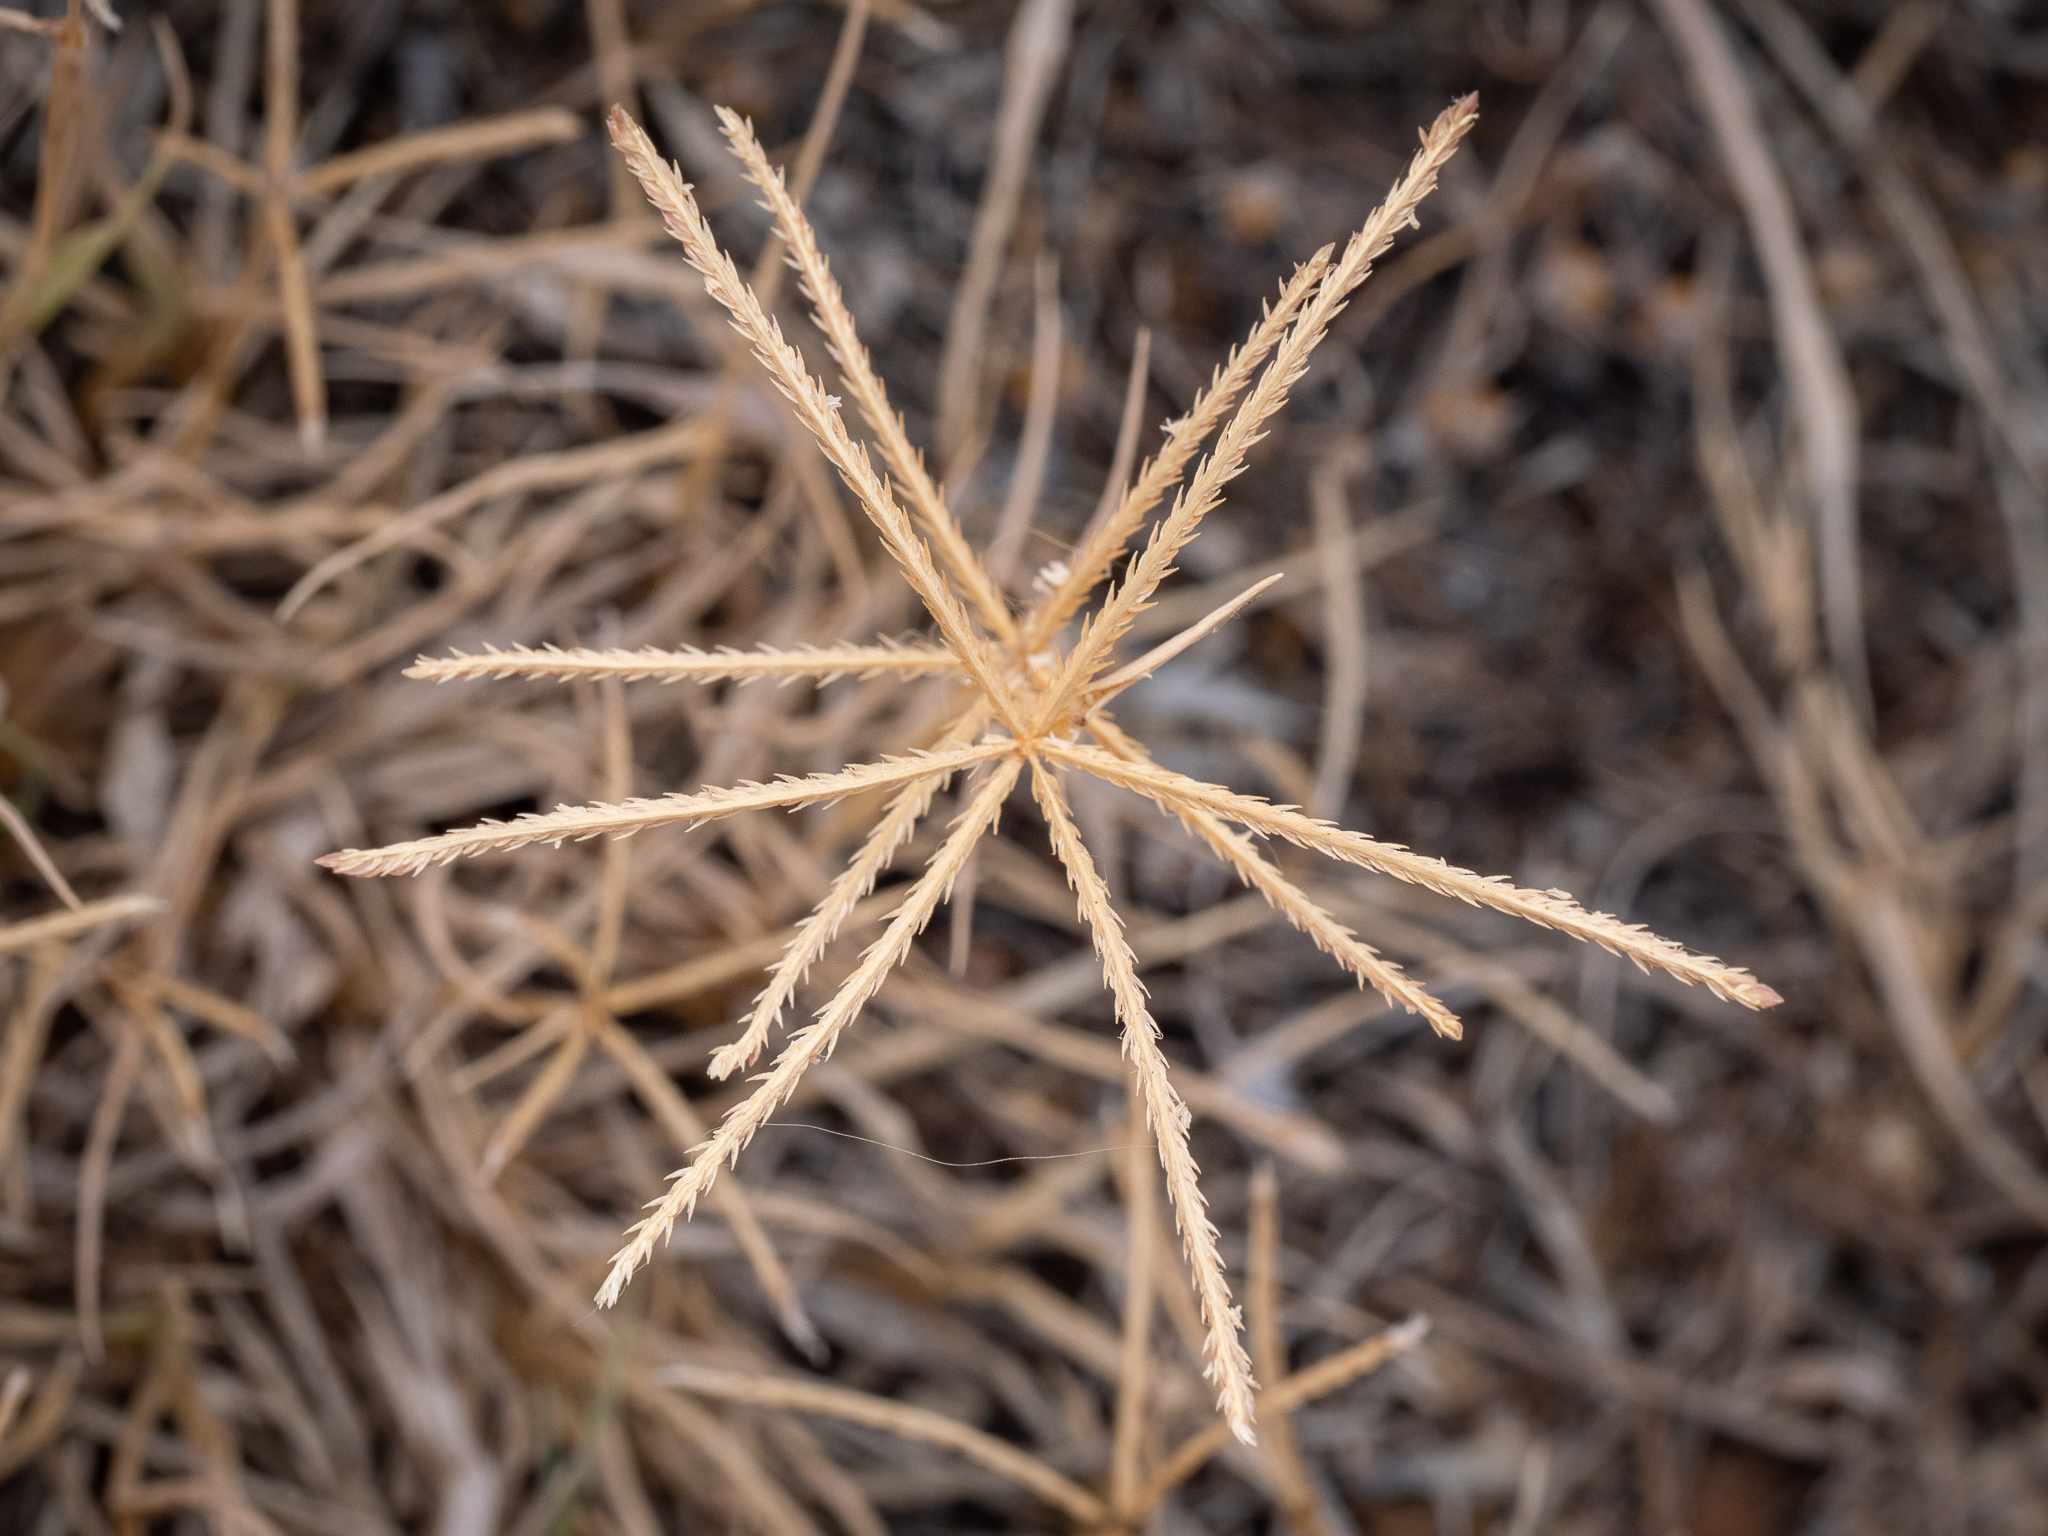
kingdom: Plantae
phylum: Tracheophyta
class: Liliopsida
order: Poales
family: Poaceae
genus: Cynodon
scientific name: Cynodon dactylon
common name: Bermuda grass
